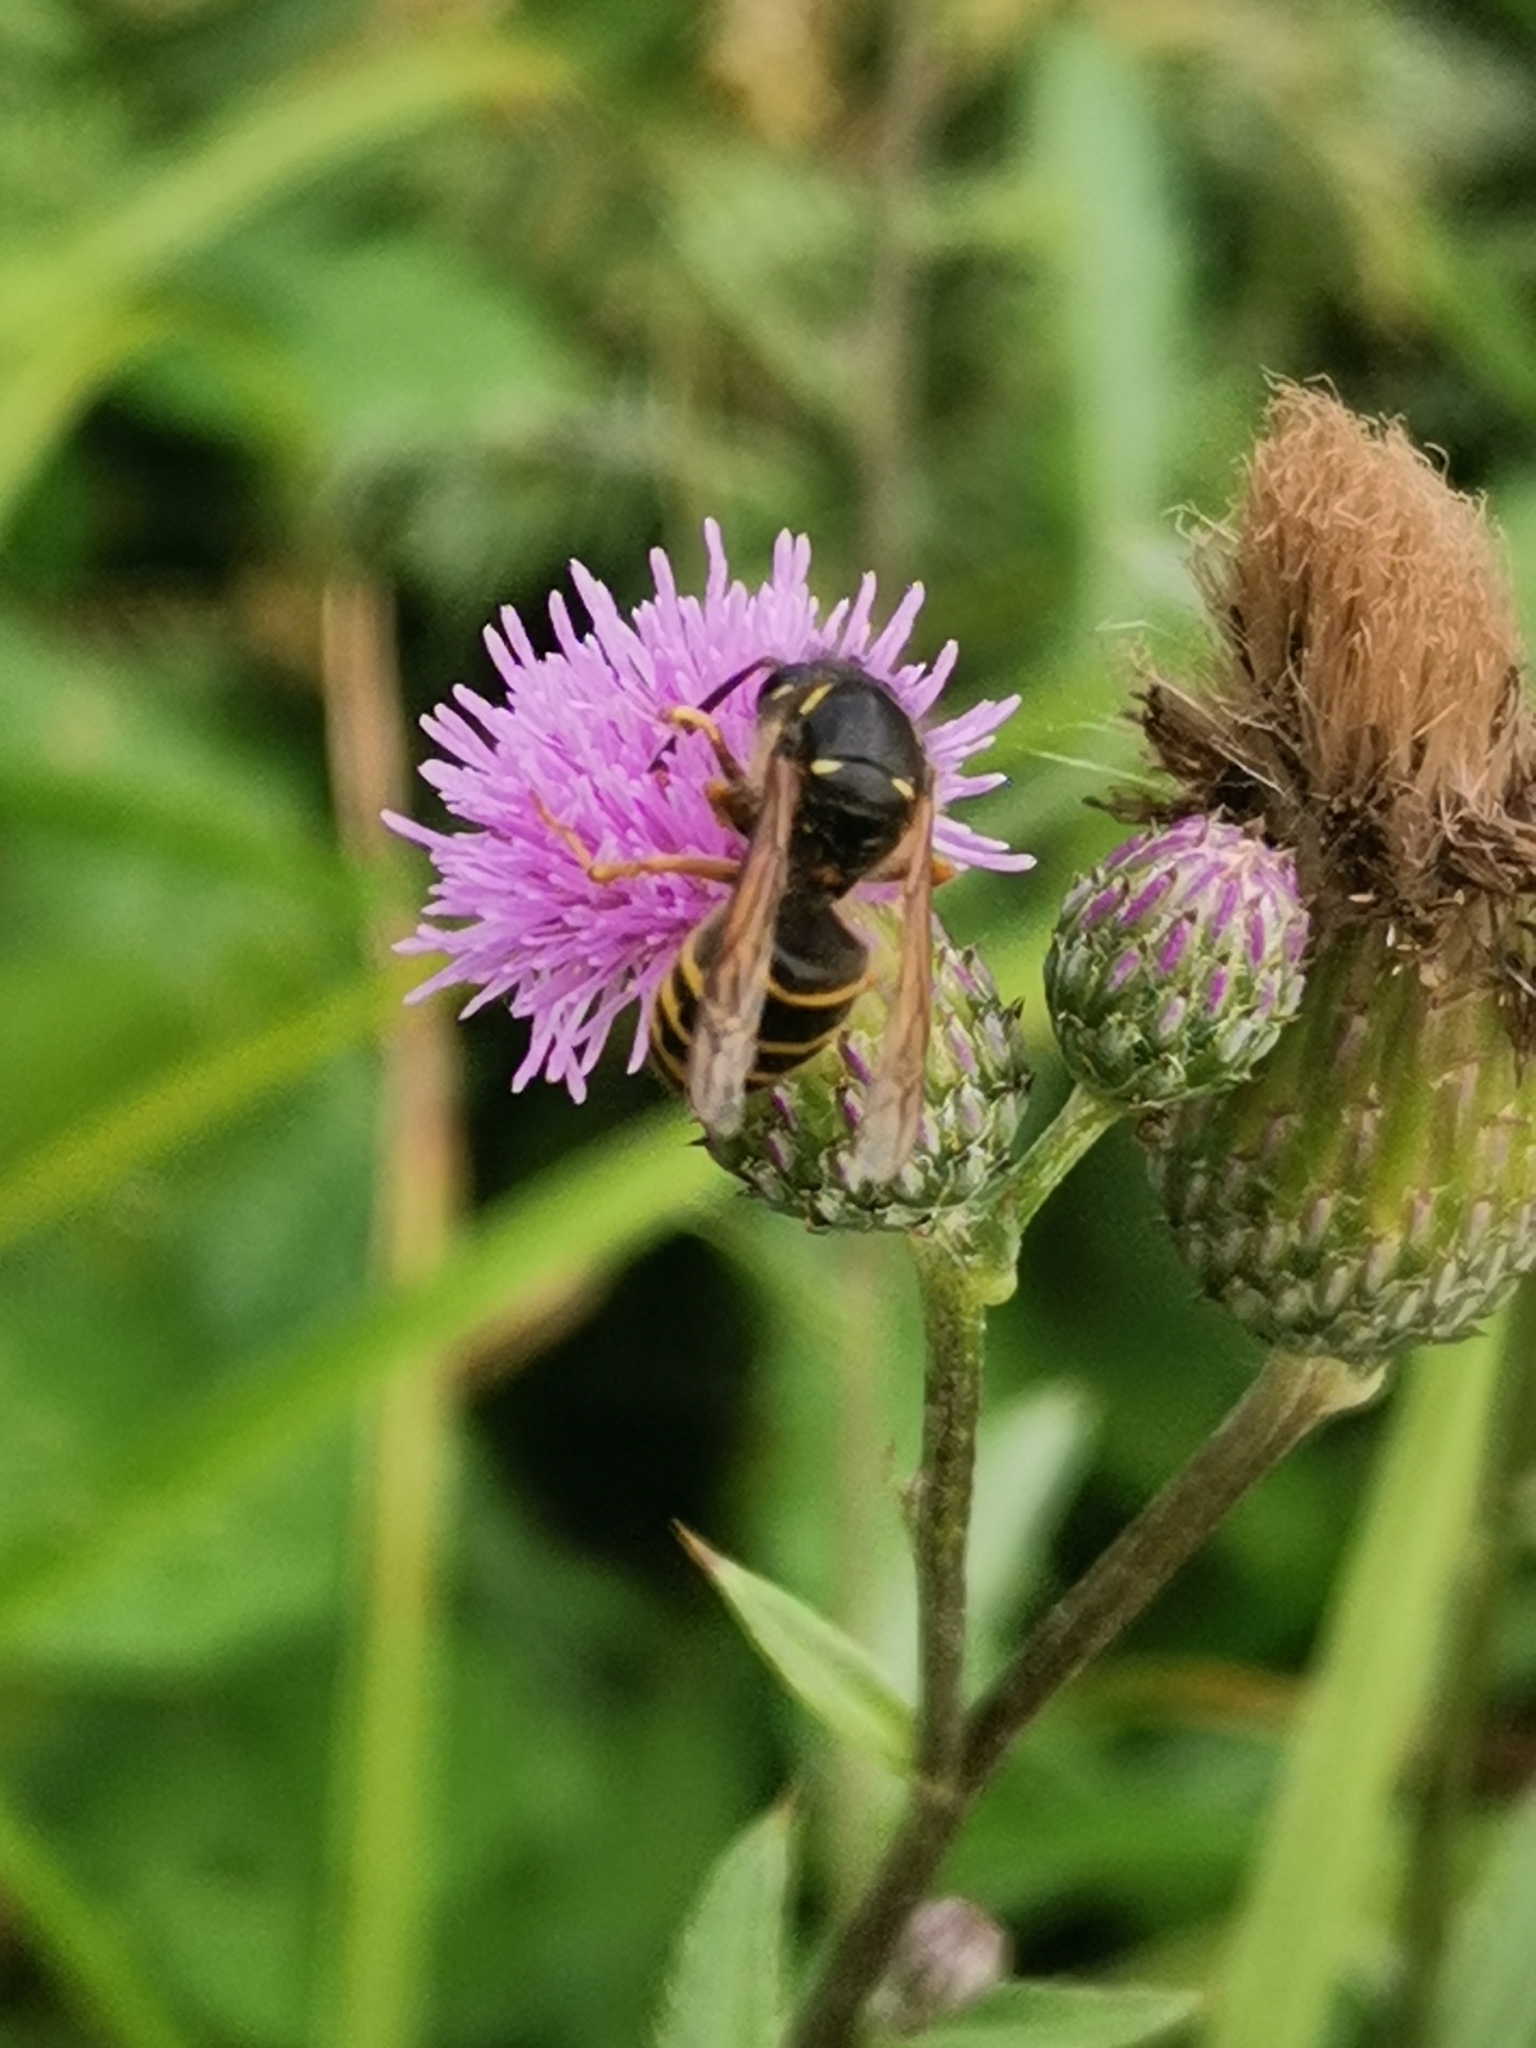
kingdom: Animalia
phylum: Arthropoda
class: Insecta
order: Hymenoptera
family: Vespidae
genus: Dolichovespula
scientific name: Dolichovespula saxonica
